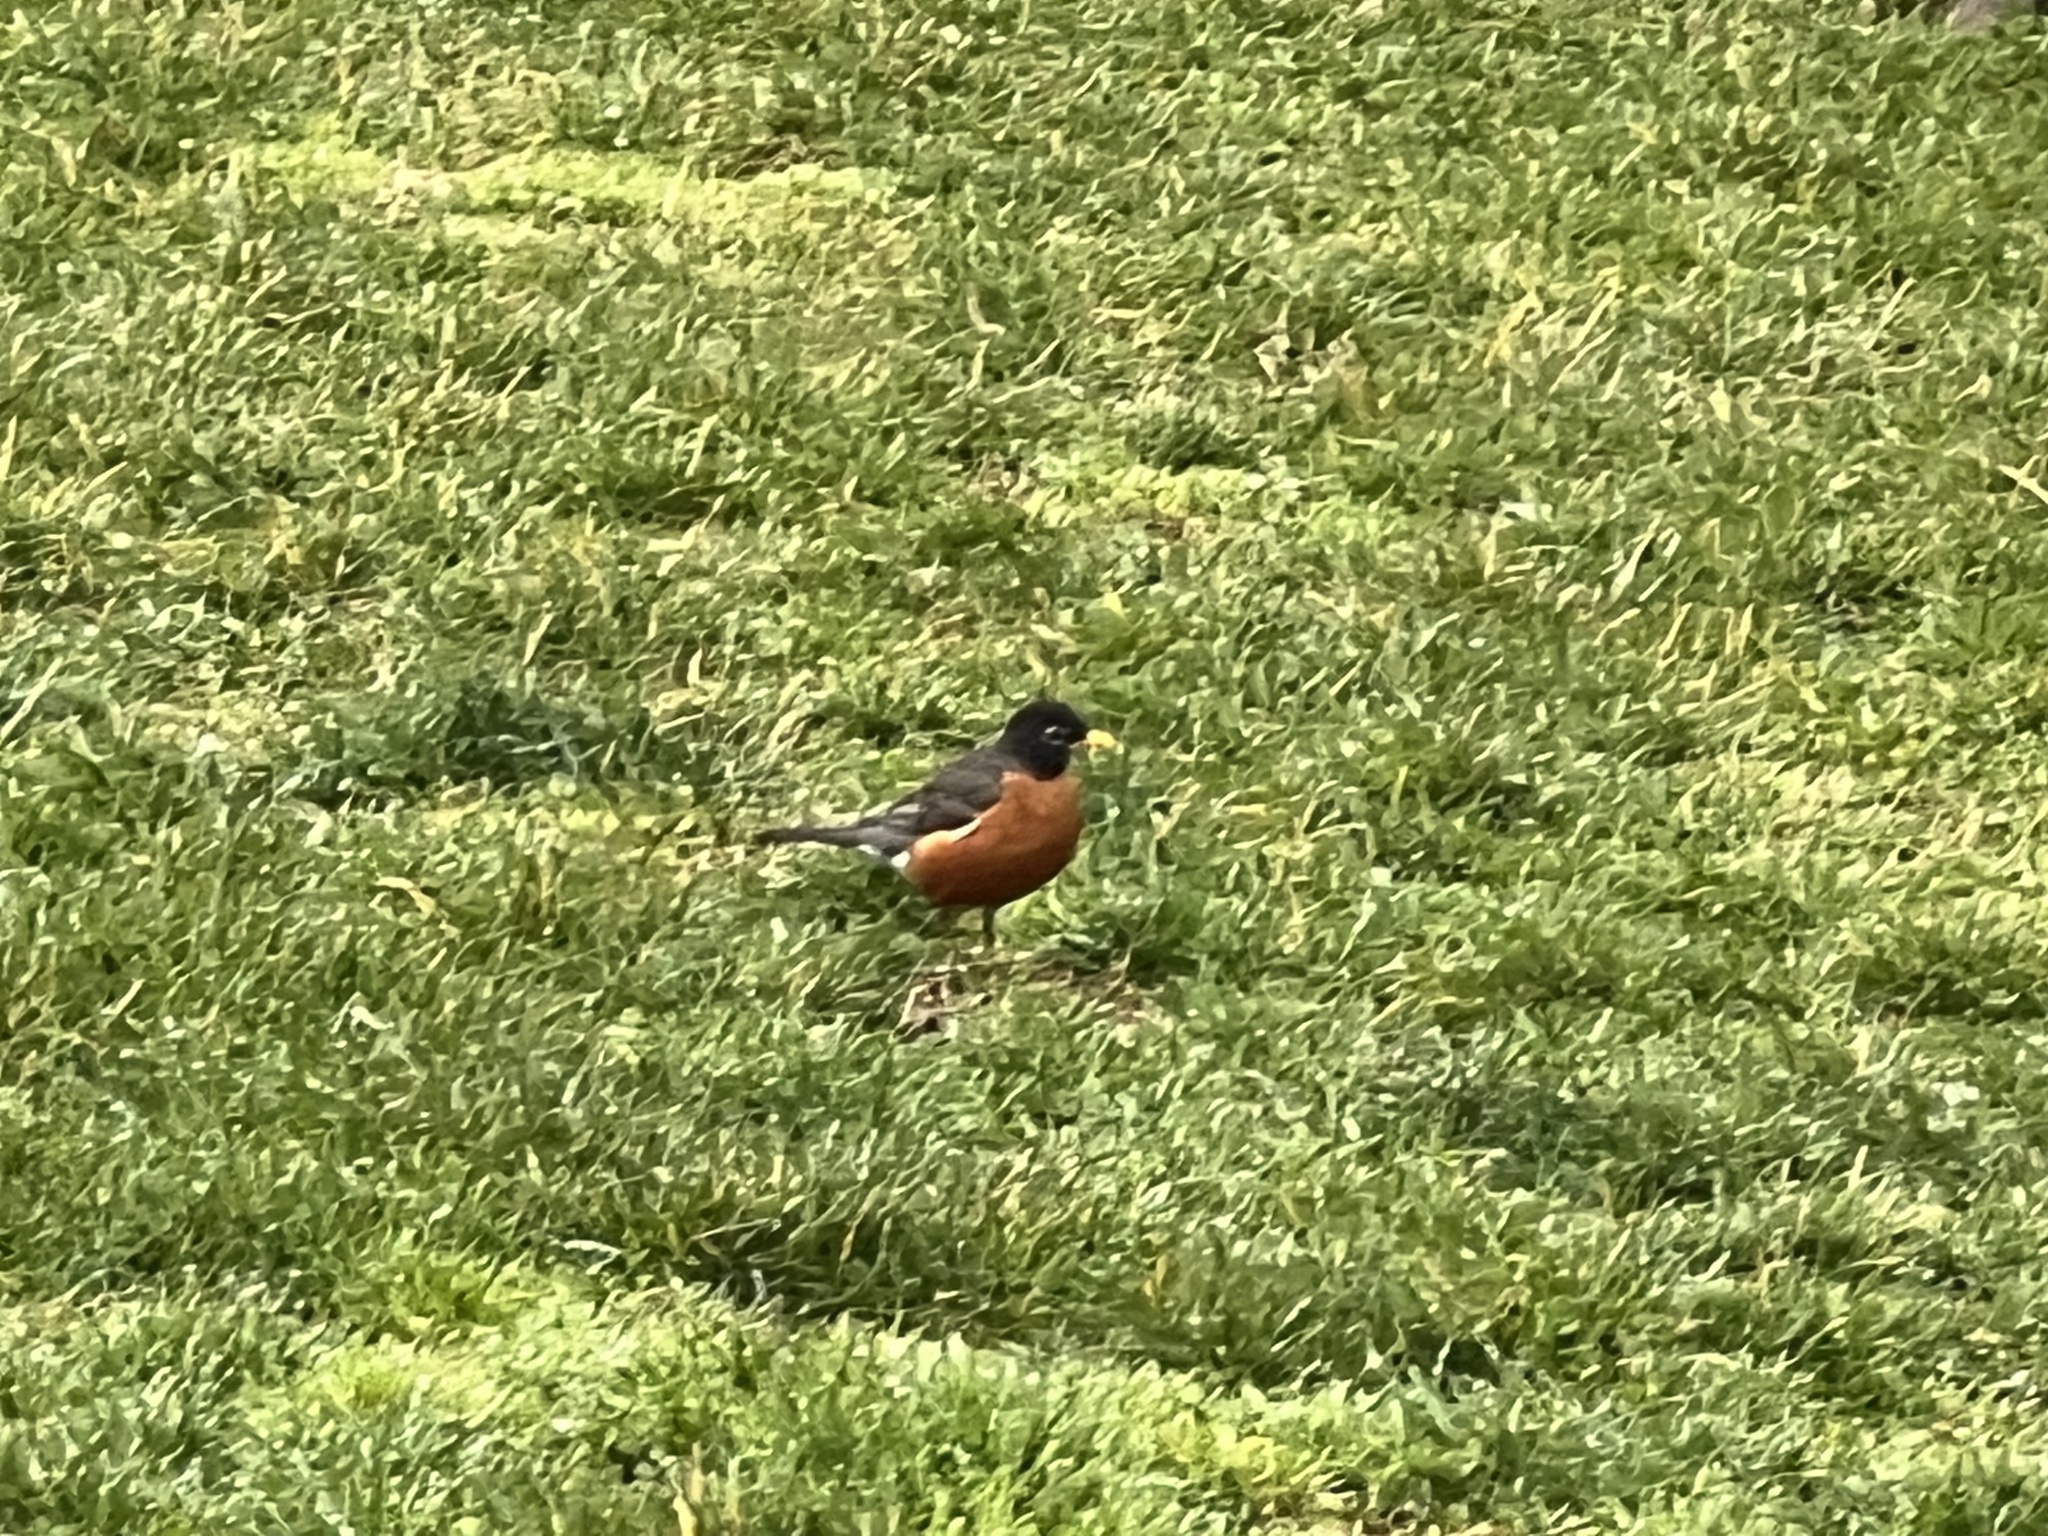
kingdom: Animalia
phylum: Chordata
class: Aves
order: Passeriformes
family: Turdidae
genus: Turdus
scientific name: Turdus migratorius
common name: American robin
